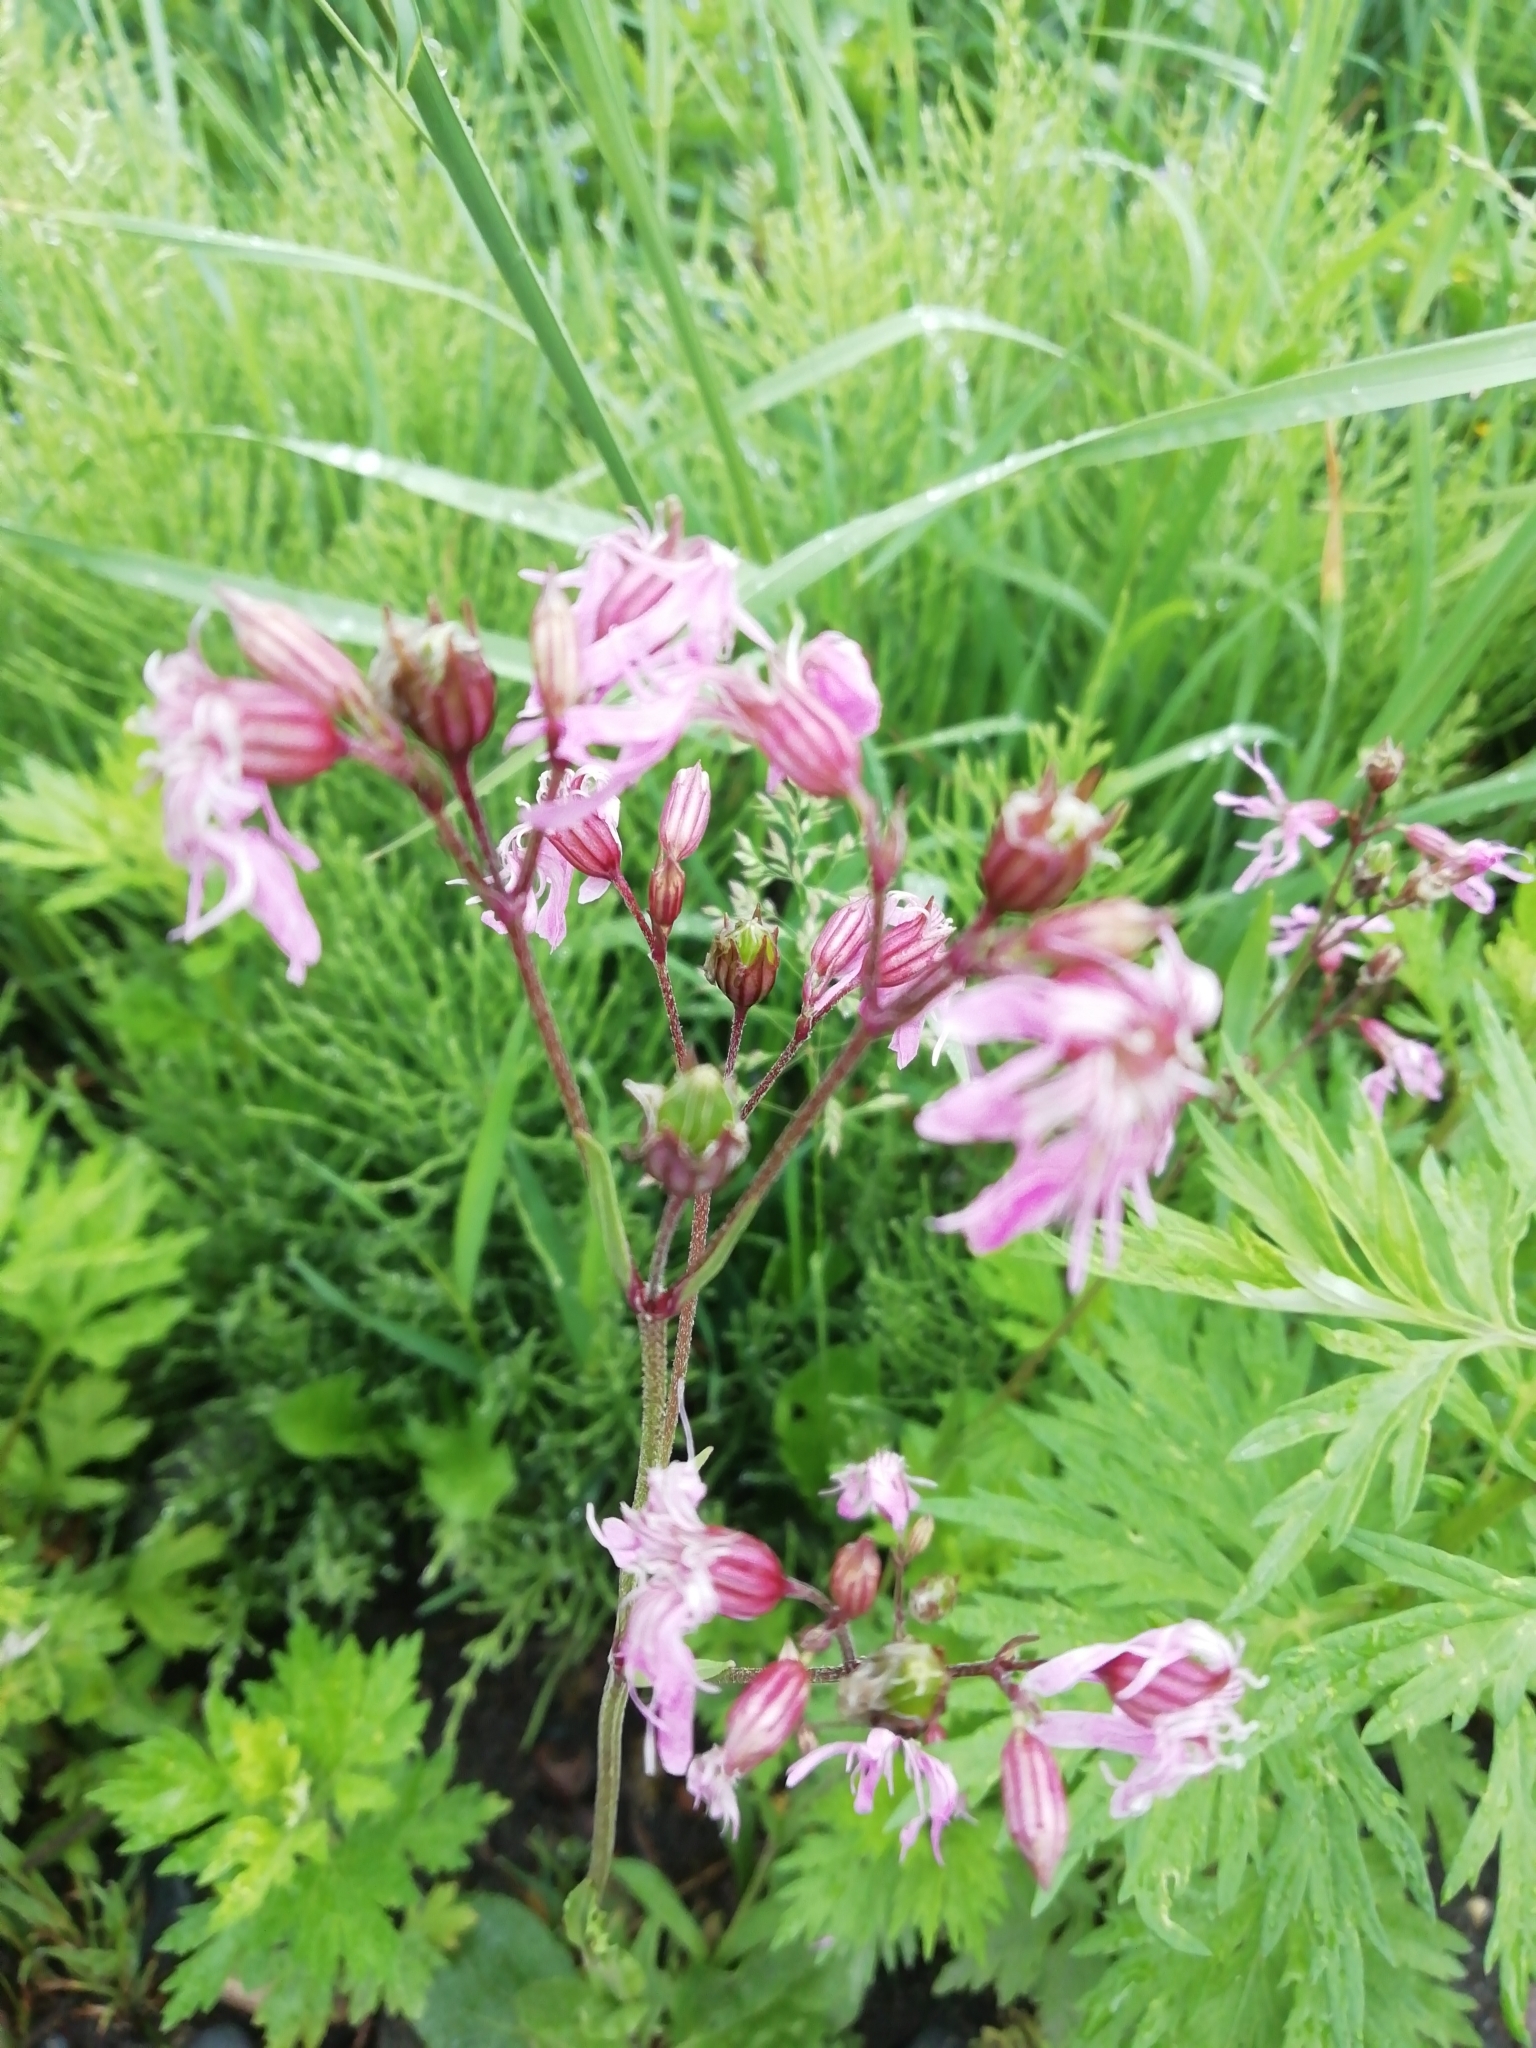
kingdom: Plantae
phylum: Tracheophyta
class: Magnoliopsida
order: Caryophyllales
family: Caryophyllaceae
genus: Silene
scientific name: Silene flos-cuculi
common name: Ragged-robin
